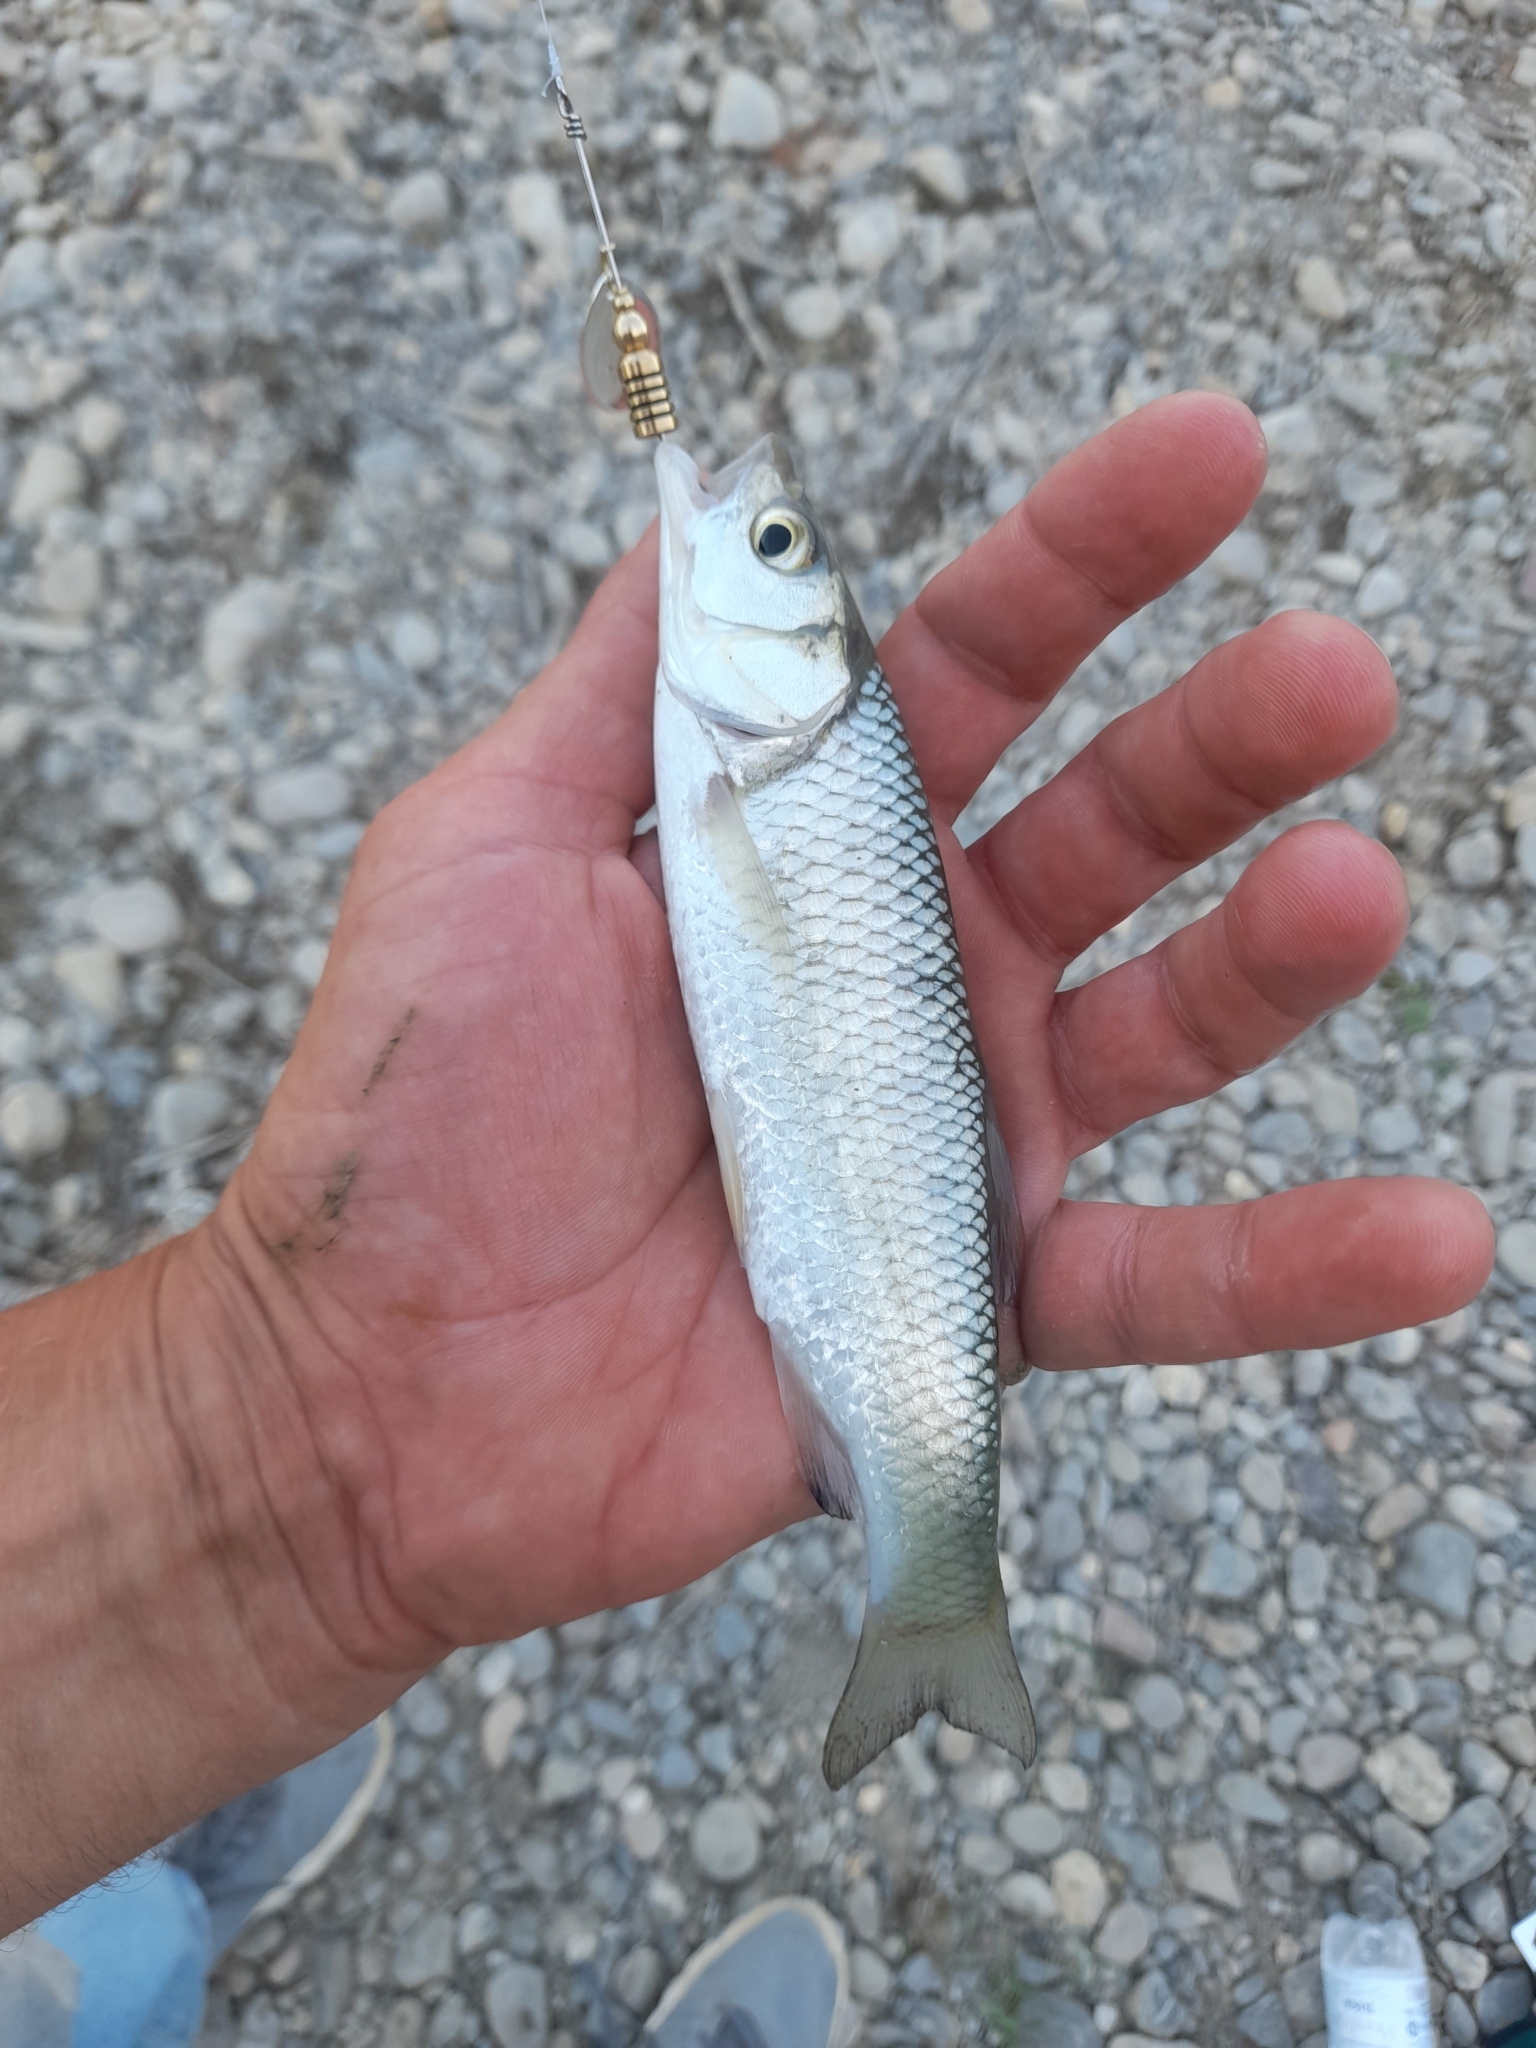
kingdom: Animalia
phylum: Chordata
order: Cypriniformes
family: Cyprinidae
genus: Squalius
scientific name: Squalius squalus
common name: Italian chub
